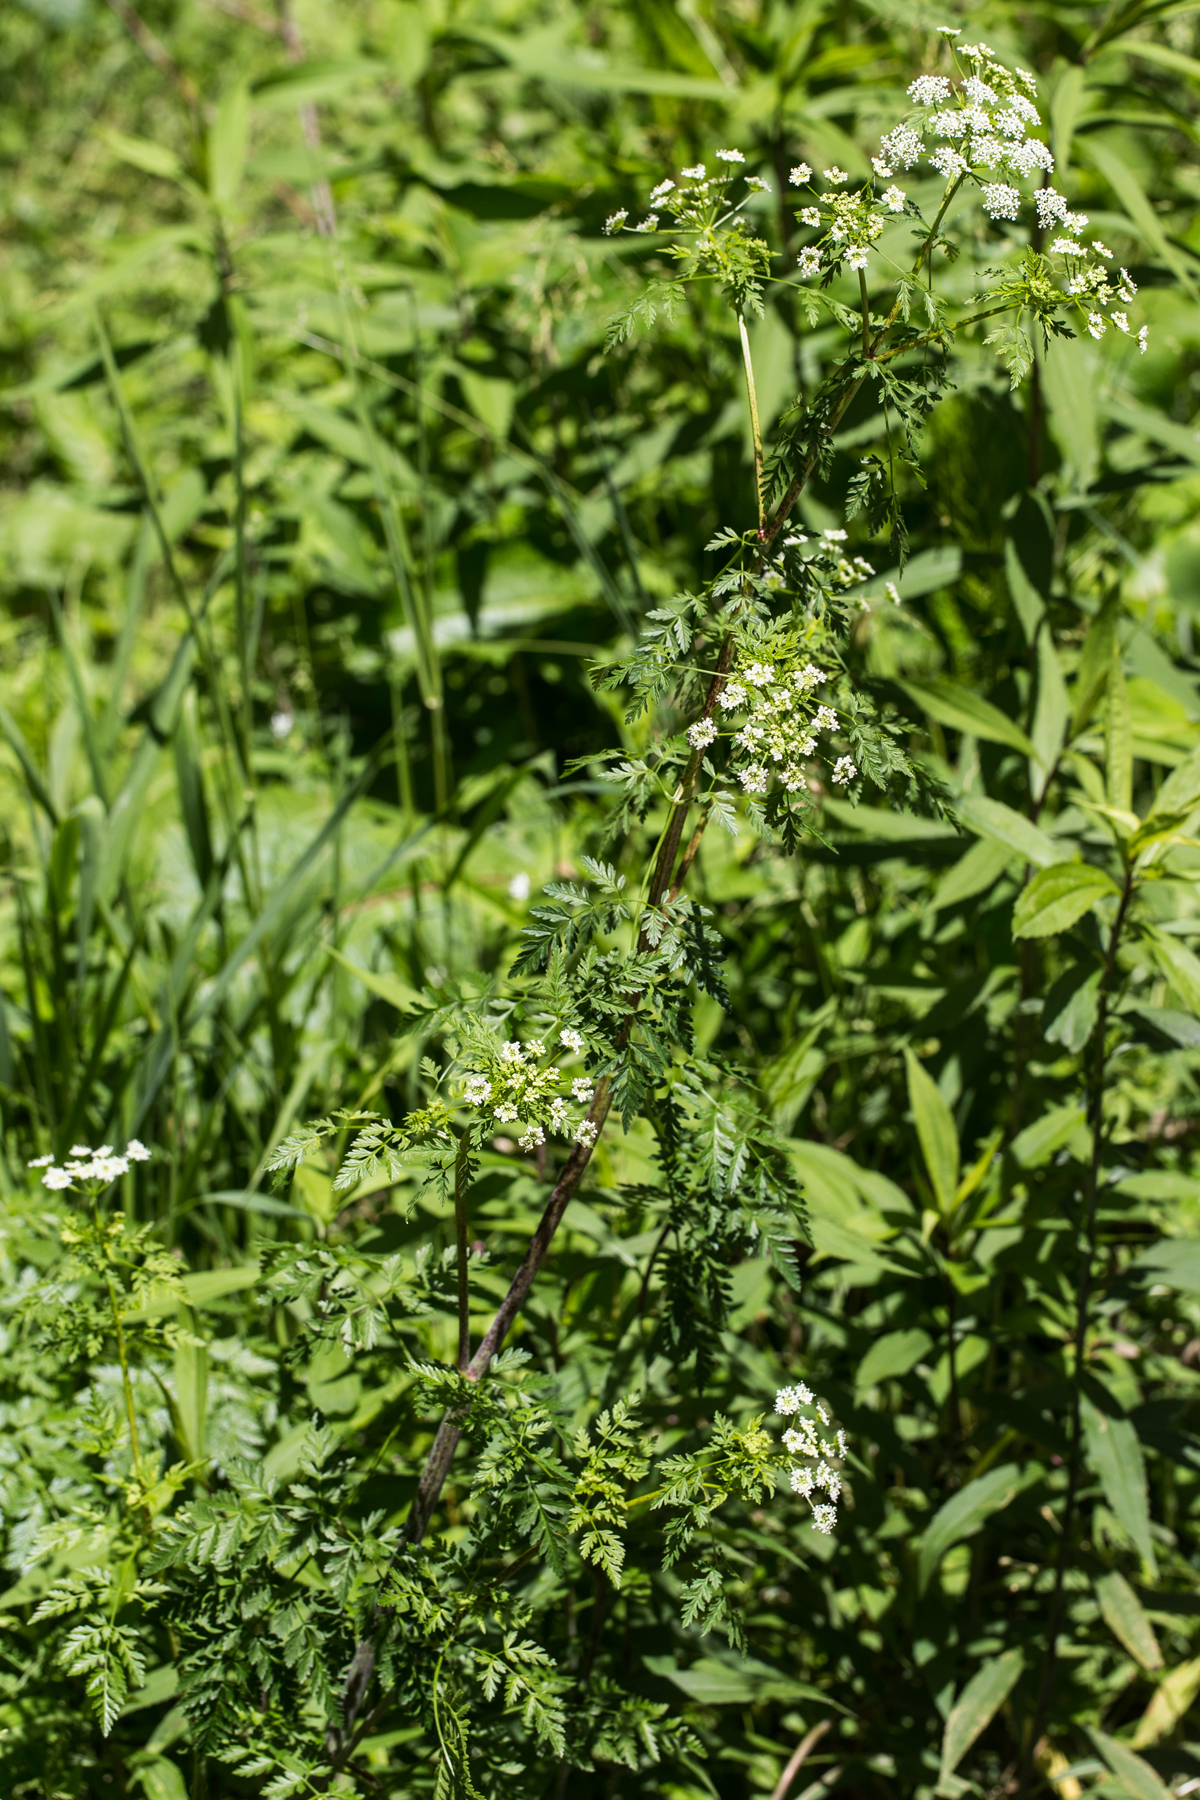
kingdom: Plantae
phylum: Tracheophyta
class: Magnoliopsida
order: Apiales
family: Apiaceae
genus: Conium
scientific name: Conium maculatum
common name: Hemlock
